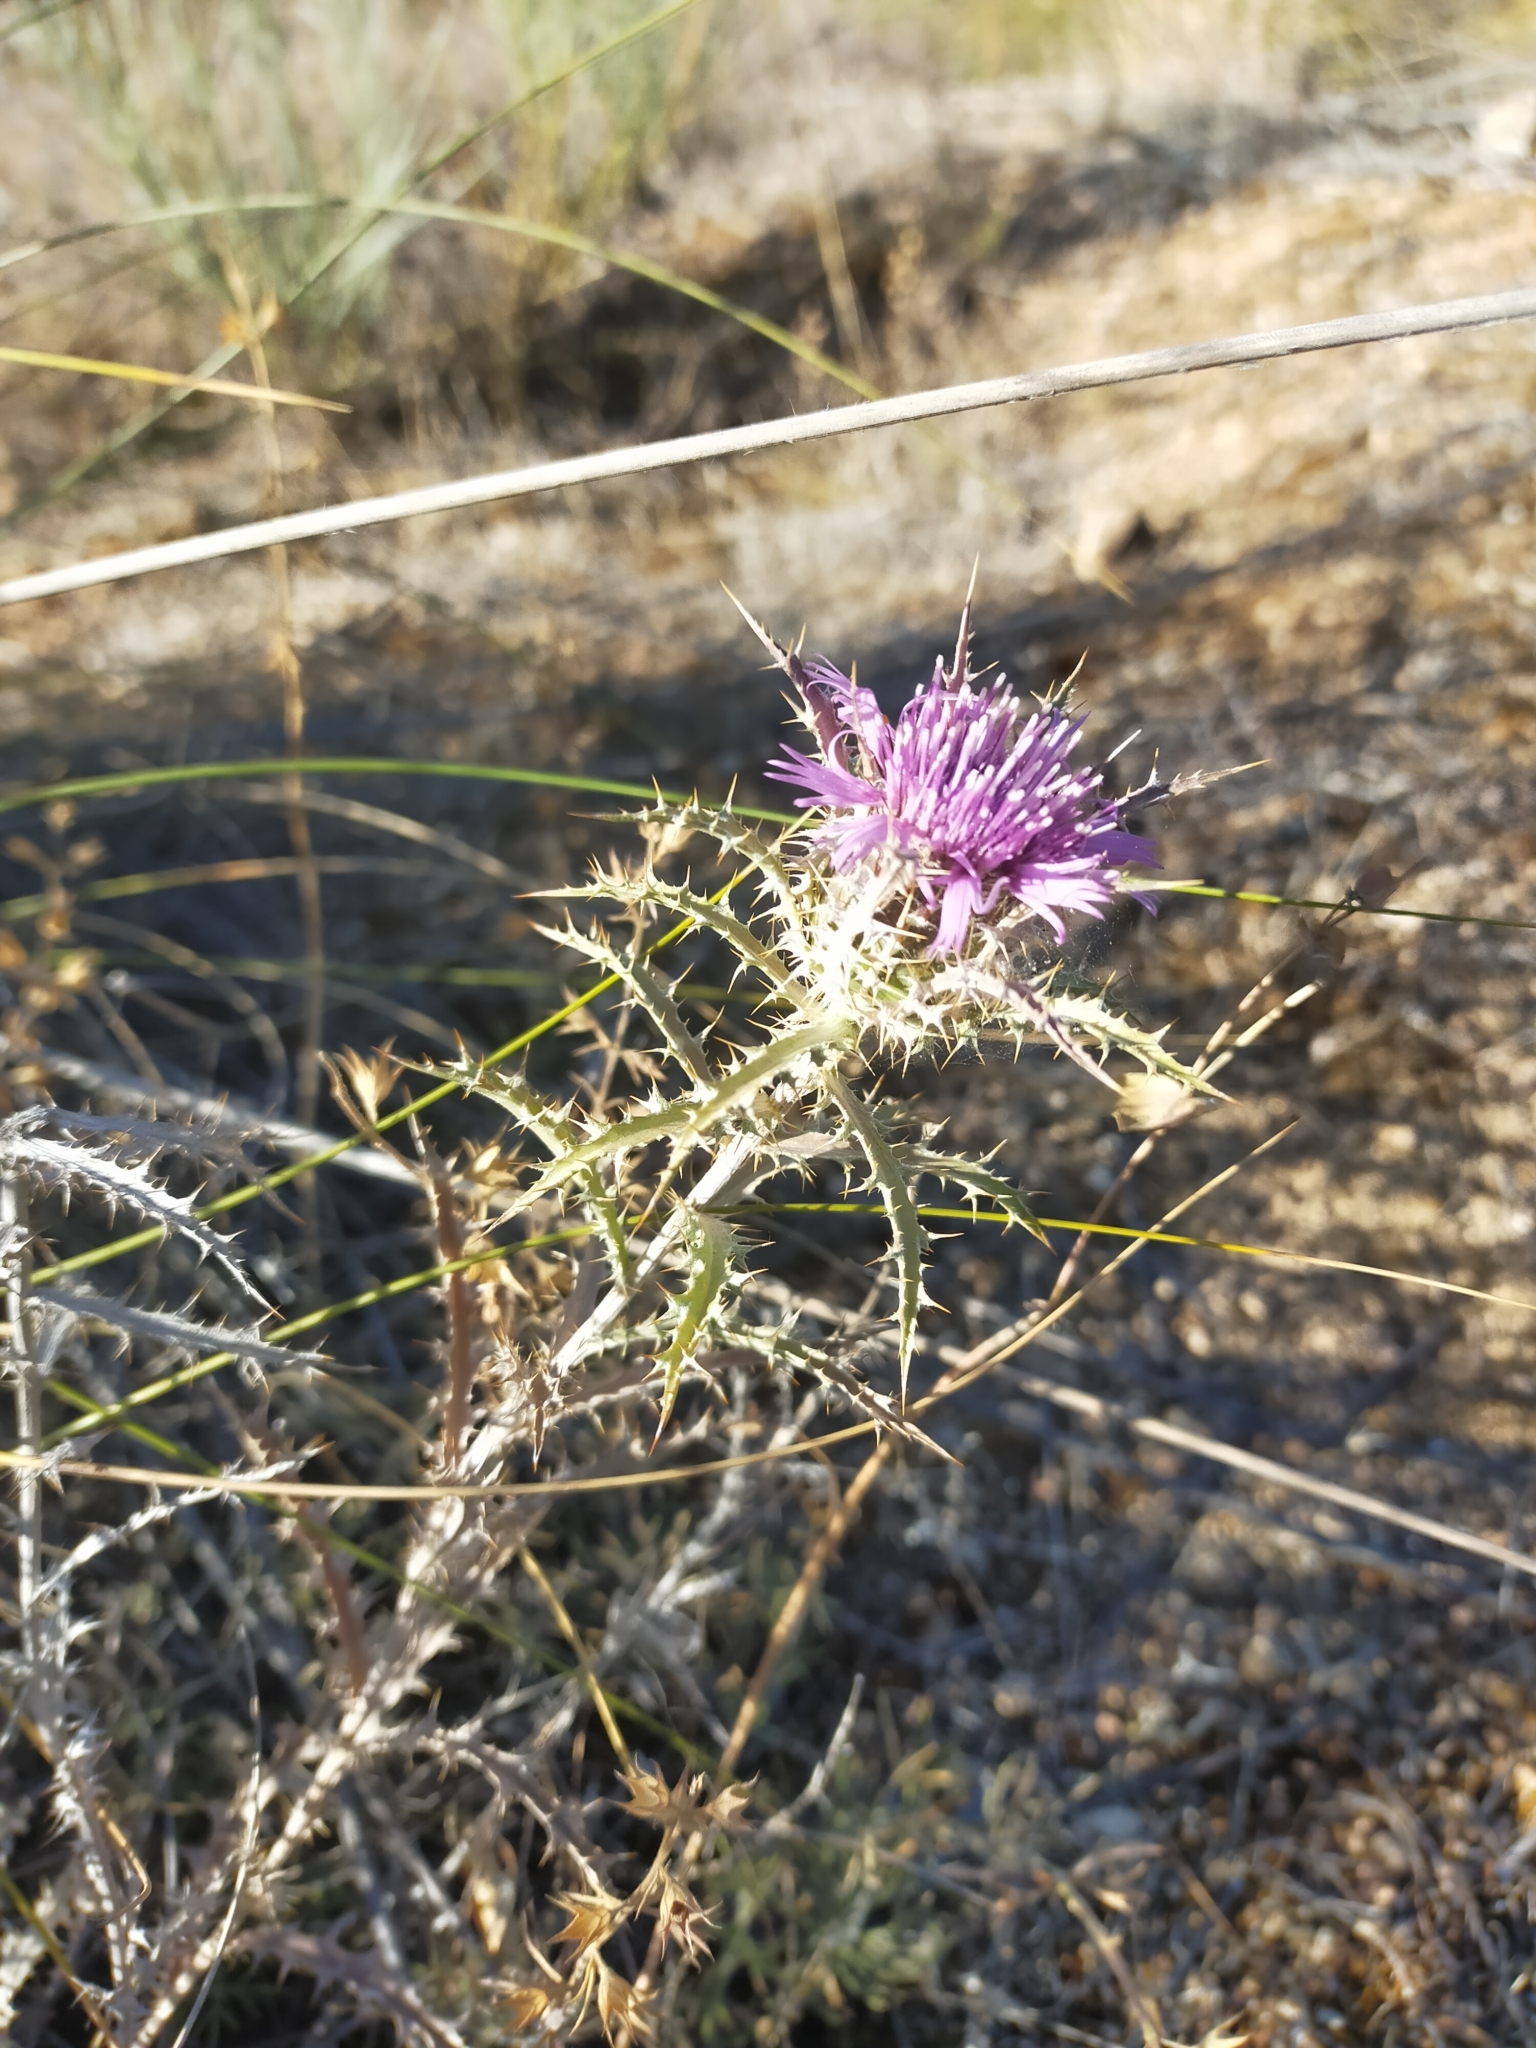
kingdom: Plantae
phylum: Tracheophyta
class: Magnoliopsida
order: Asterales
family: Asteraceae
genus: Atractylis
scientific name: Atractylis humilis
